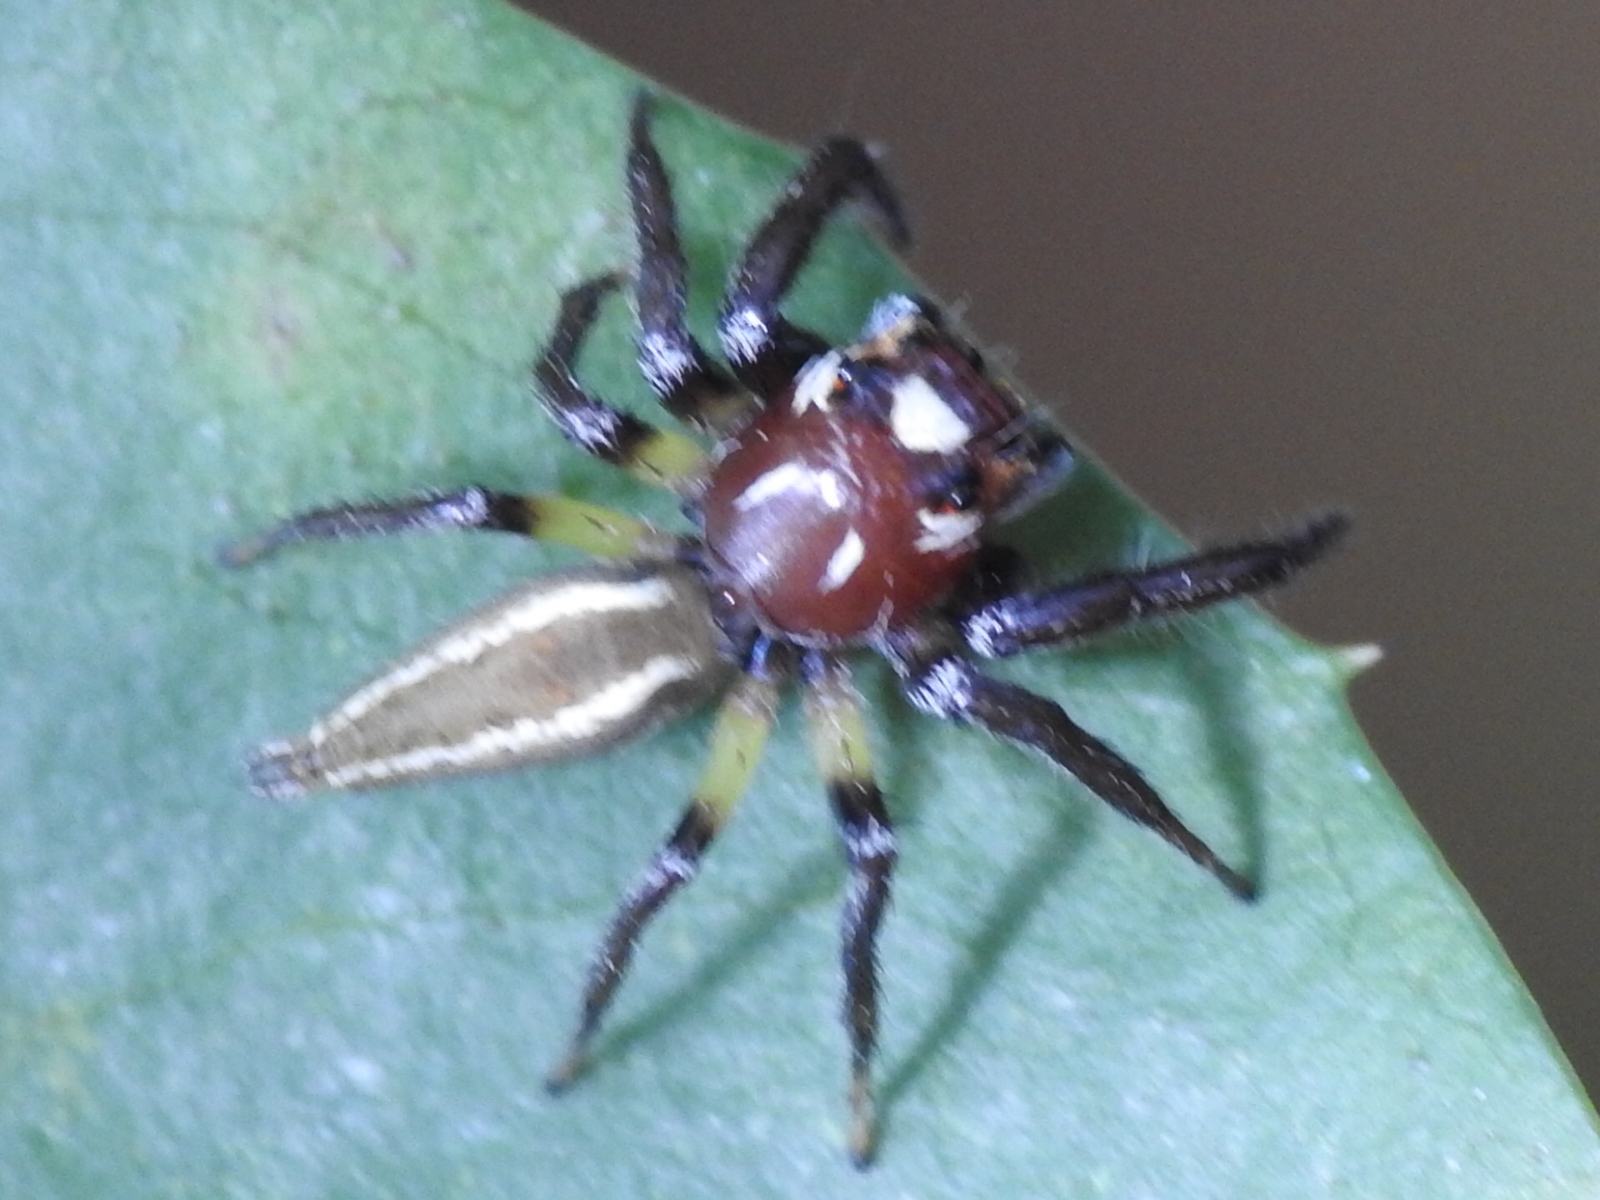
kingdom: Animalia
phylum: Arthropoda
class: Arachnida
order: Araneae
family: Salticidae
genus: Colonus
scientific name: Colonus sylvanus
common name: Jumping spiders
